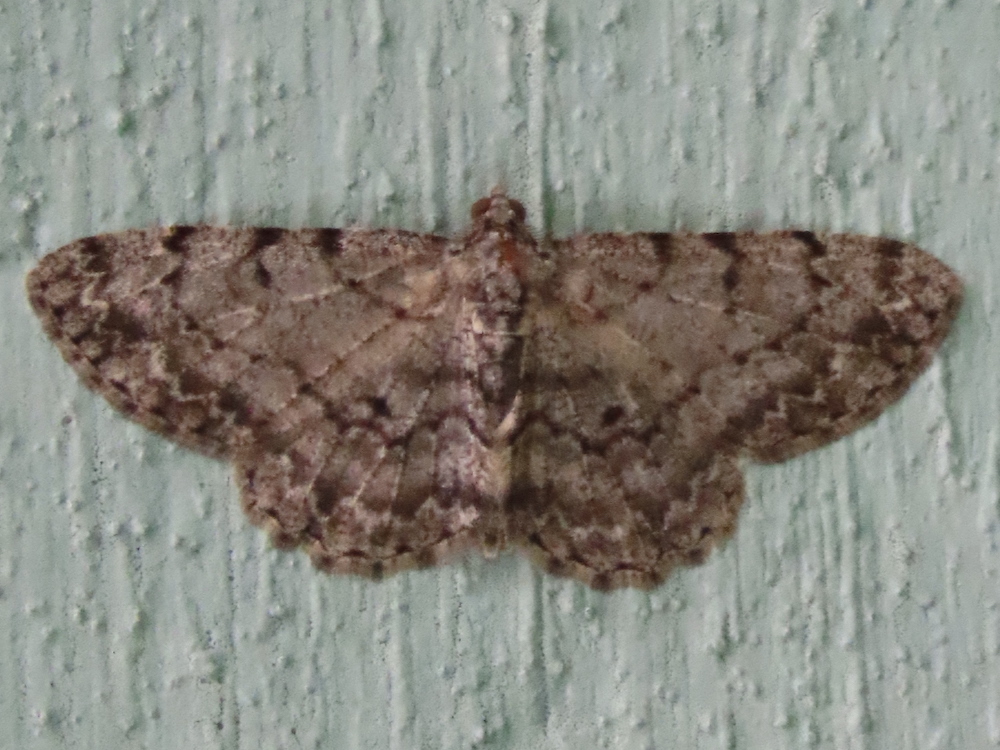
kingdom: Animalia
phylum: Arthropoda
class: Insecta
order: Lepidoptera
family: Geometridae
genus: Protoboarmia
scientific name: Protoboarmia porcelaria
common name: Porcelain gray
